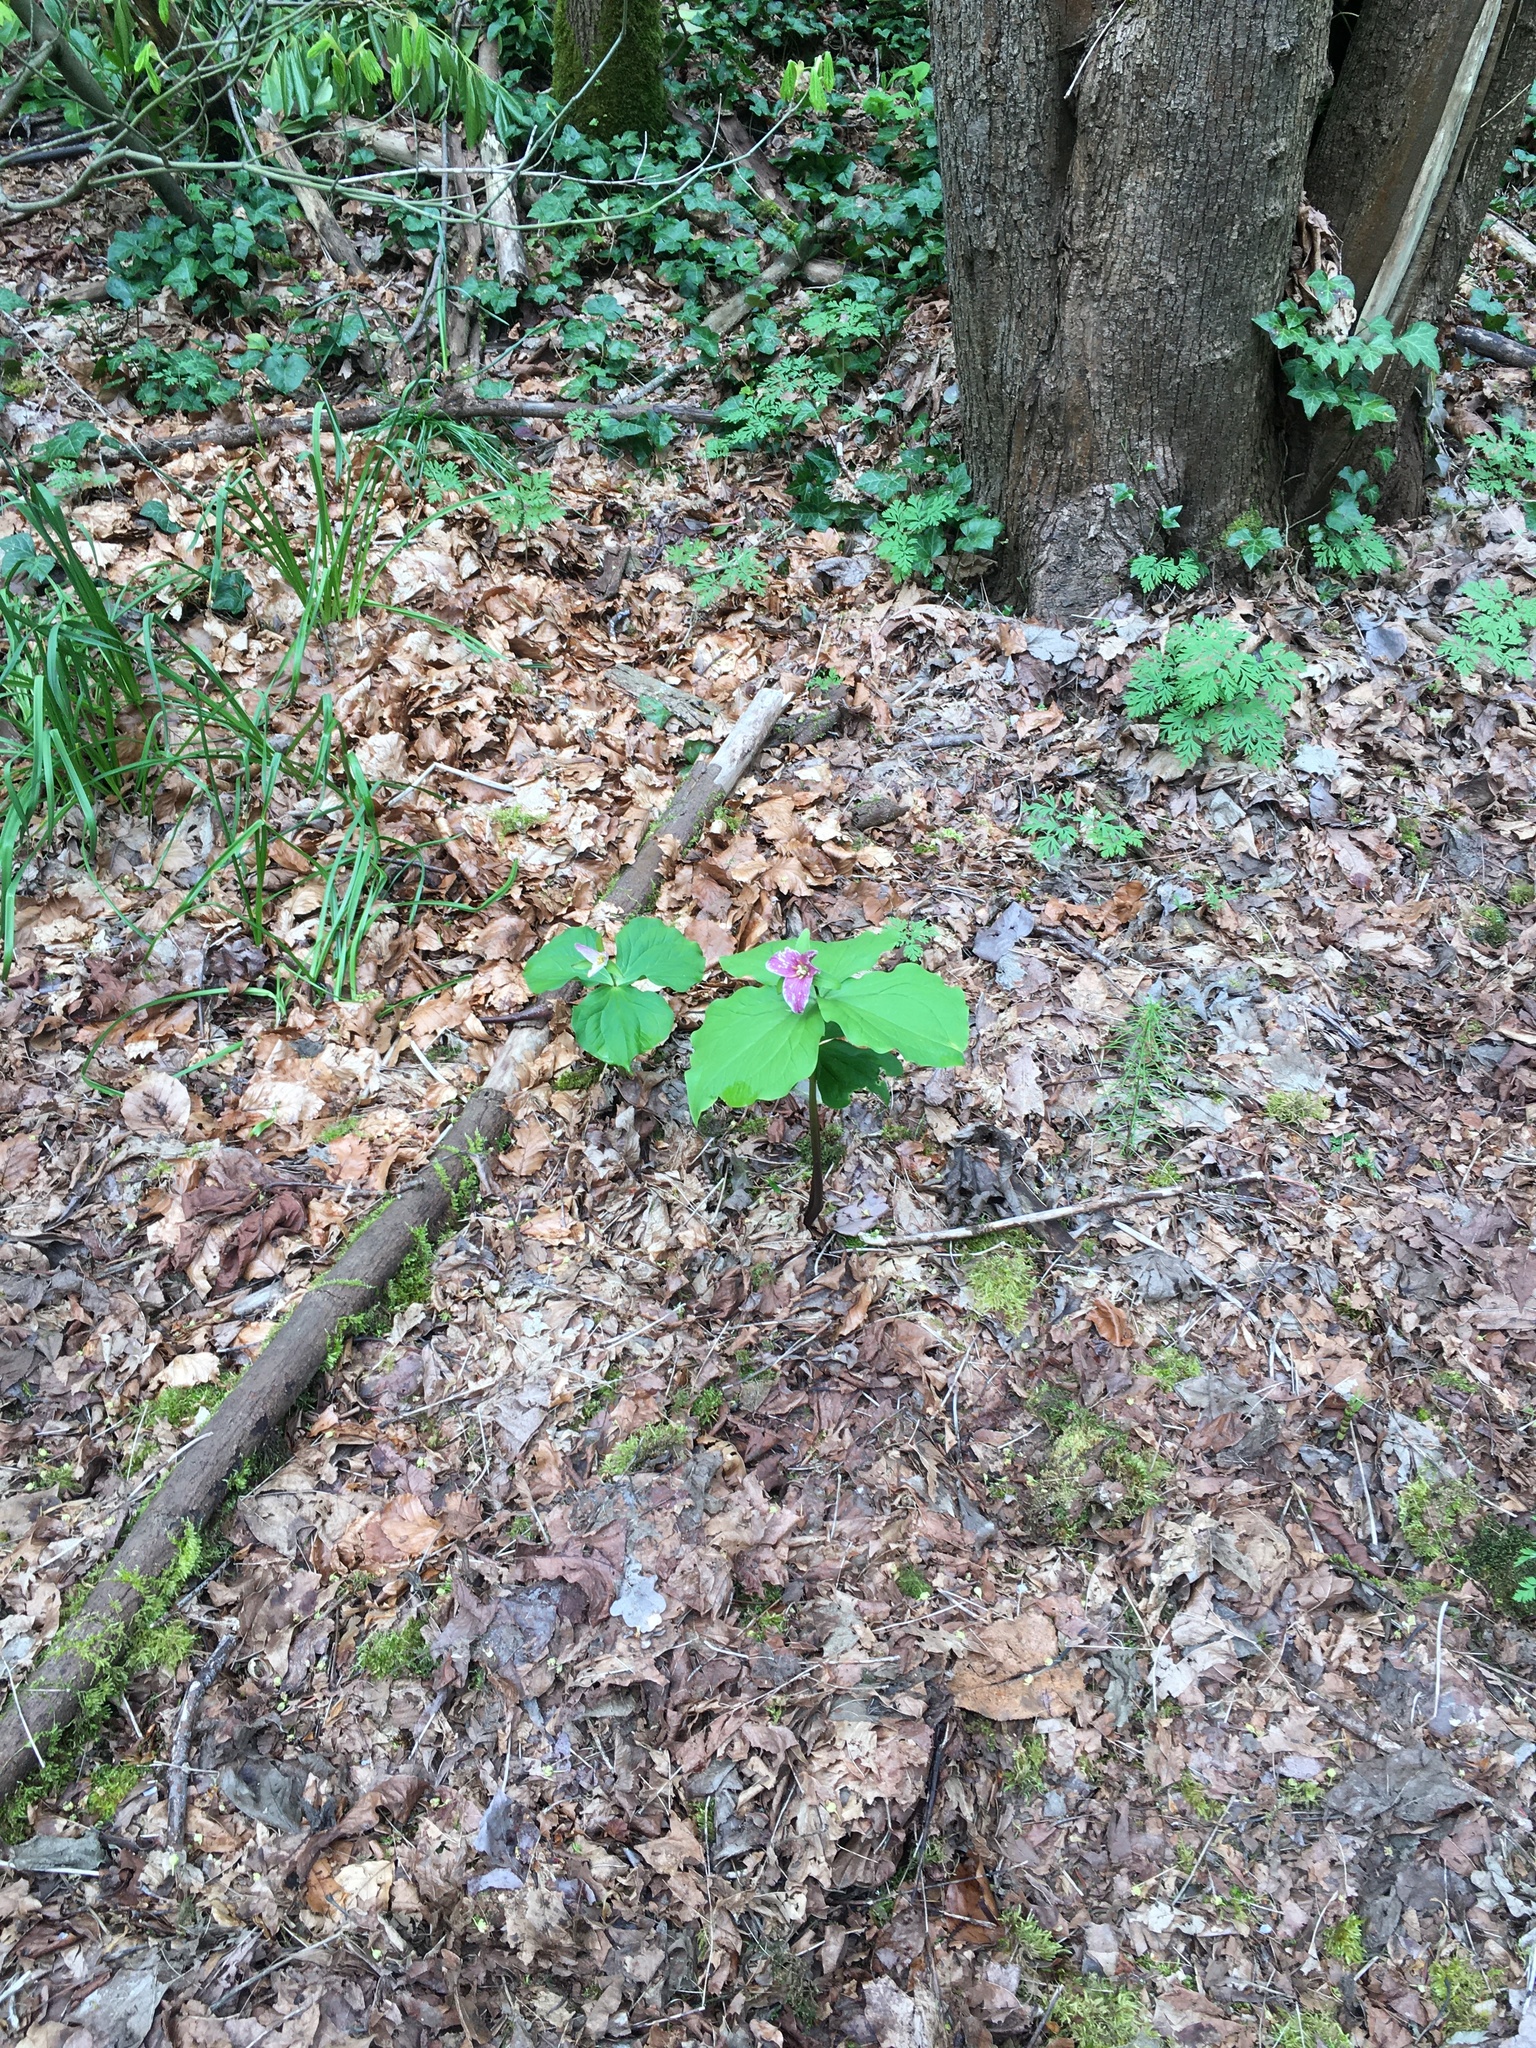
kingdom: Plantae
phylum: Tracheophyta
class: Liliopsida
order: Liliales
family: Melanthiaceae
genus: Trillium
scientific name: Trillium ovatum
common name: Pacific trillium
